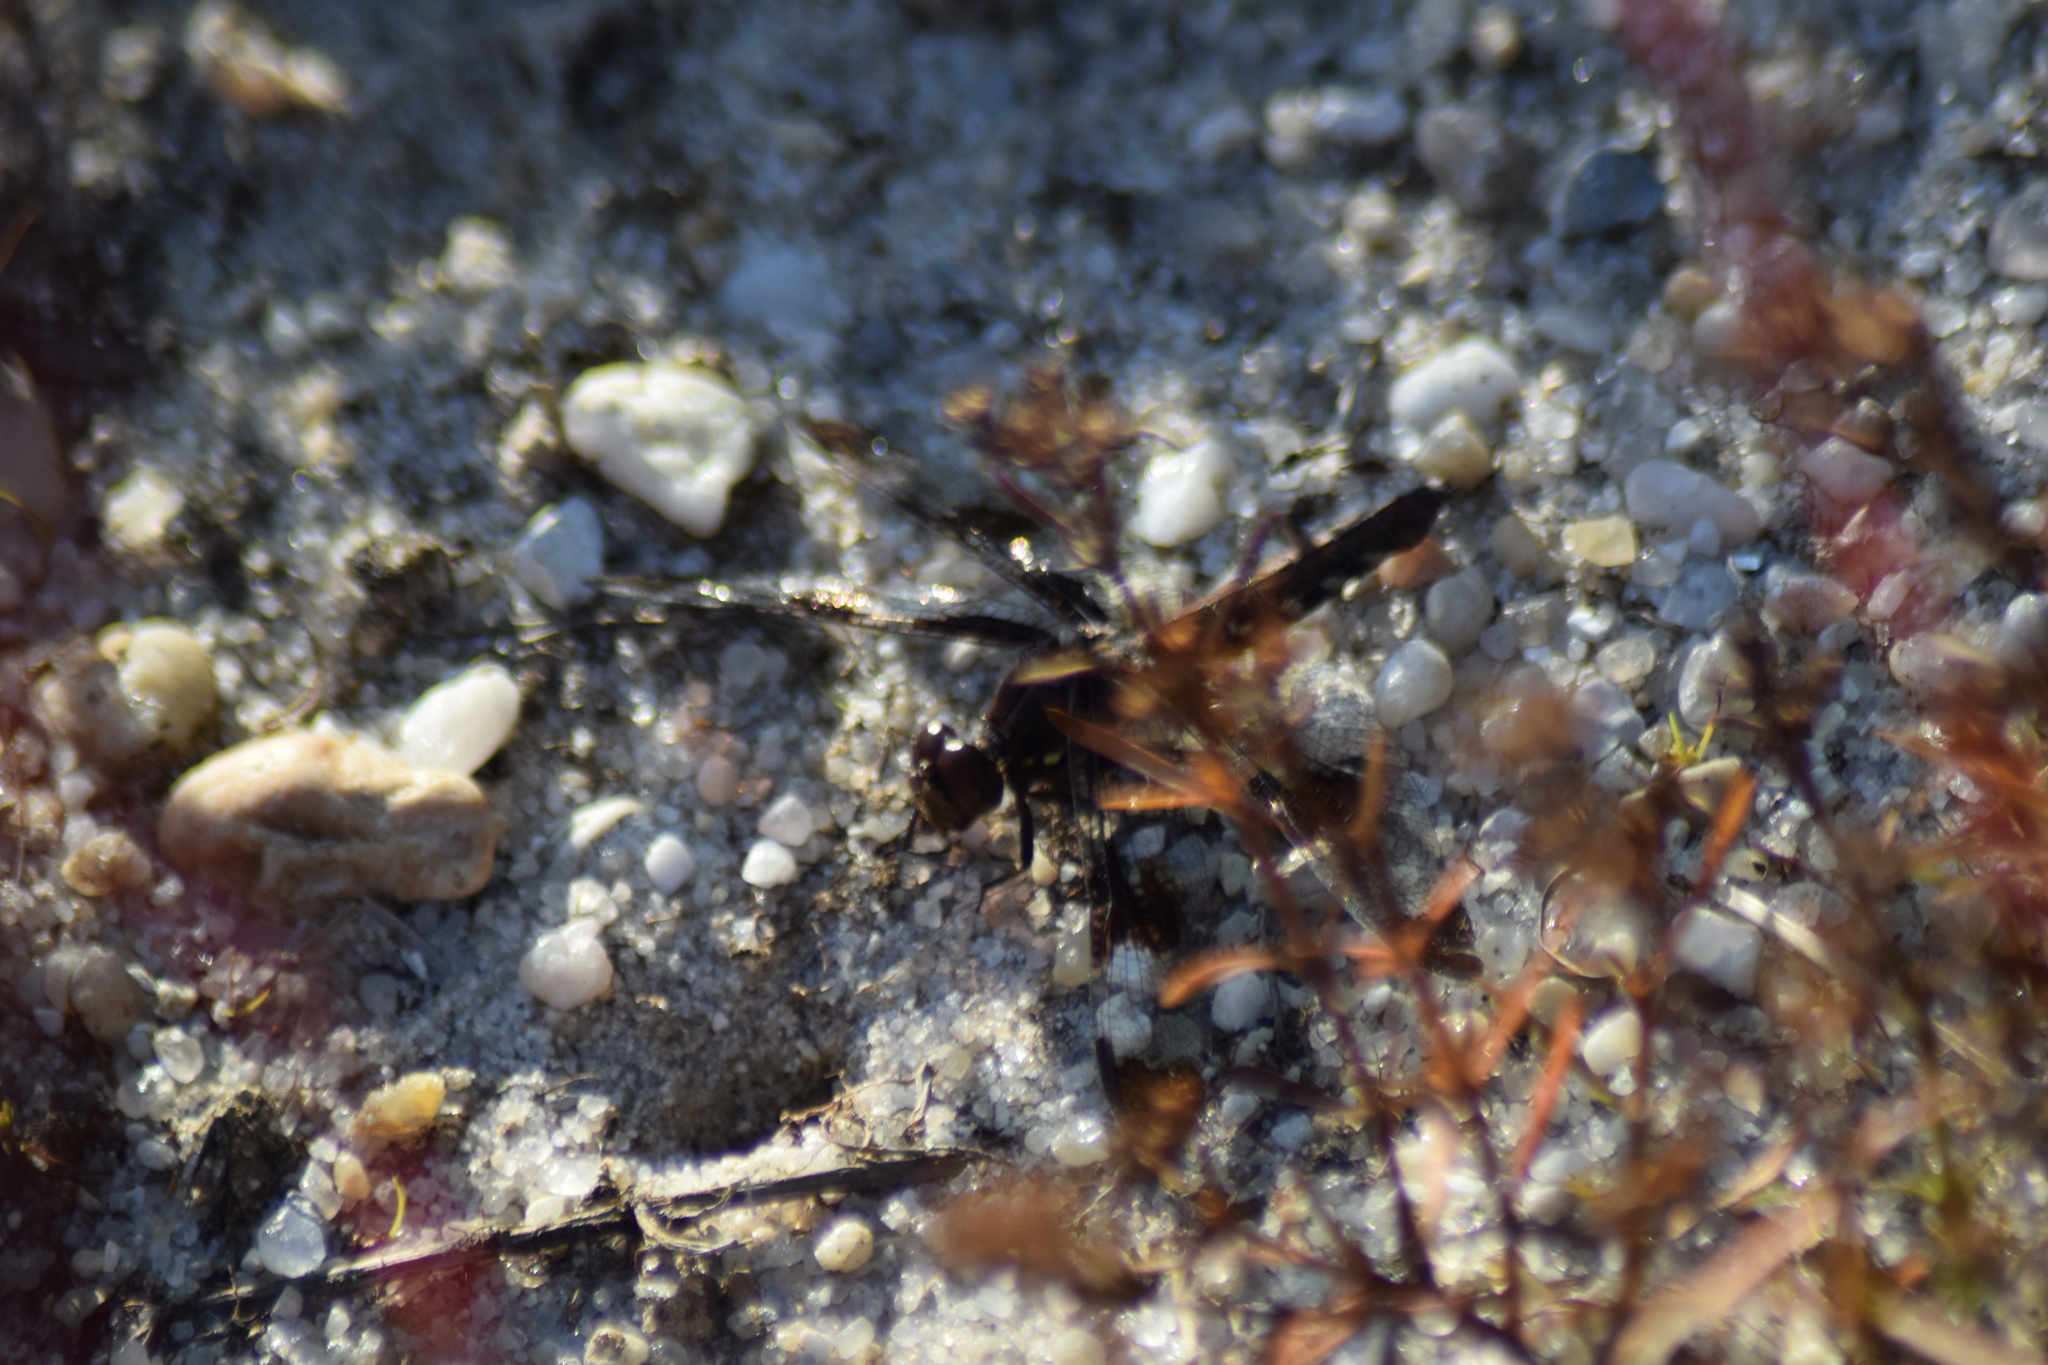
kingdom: Animalia
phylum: Arthropoda
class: Insecta
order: Odonata
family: Libellulidae
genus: Plathemis
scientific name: Plathemis lydia
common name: Common whitetail
